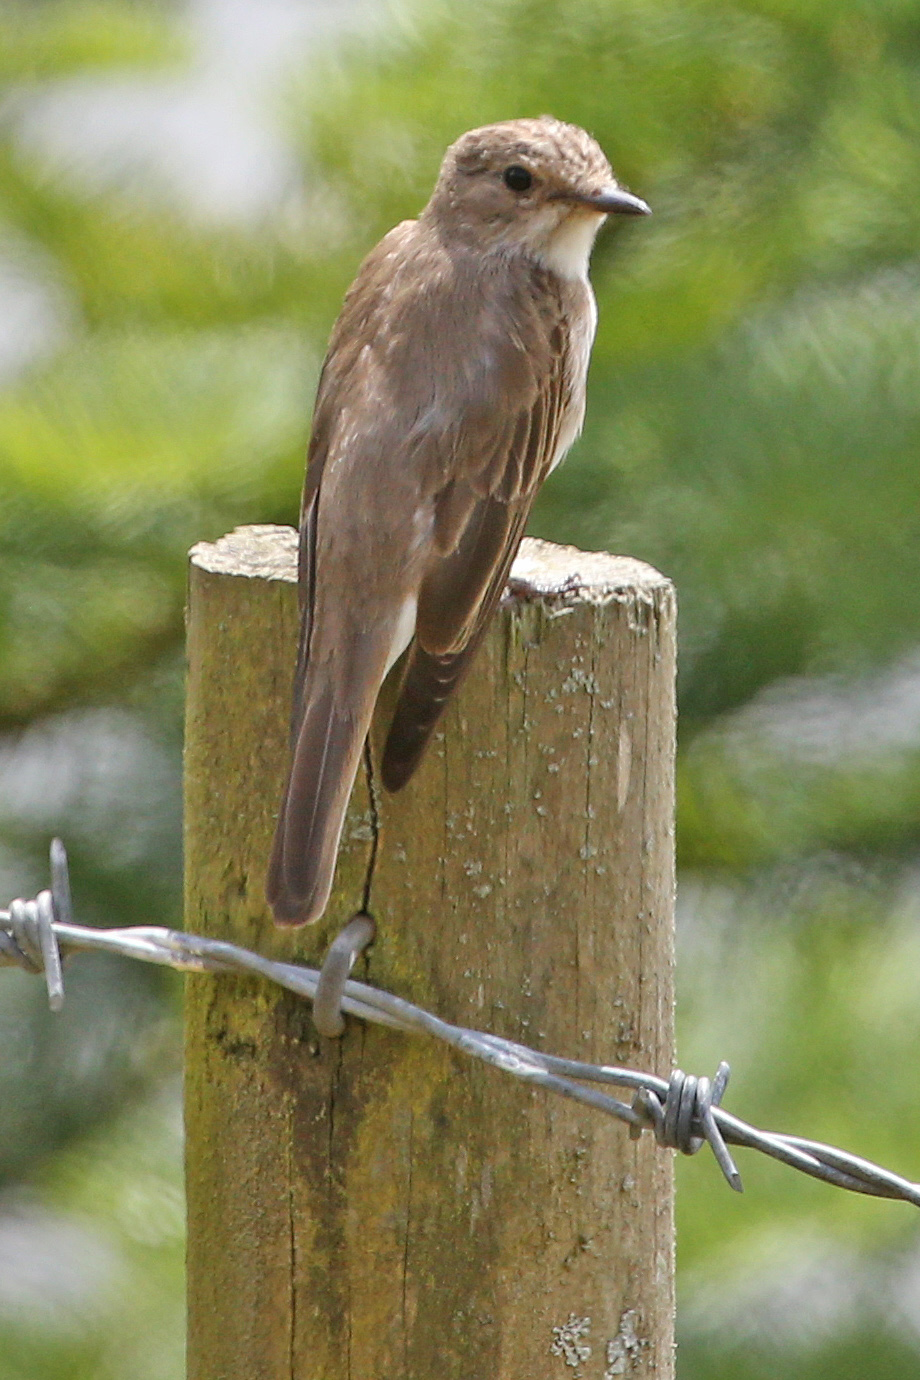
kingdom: Animalia
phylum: Chordata
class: Aves
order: Passeriformes
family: Muscicapidae
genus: Muscicapa
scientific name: Muscicapa striata
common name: Spotted flycatcher
